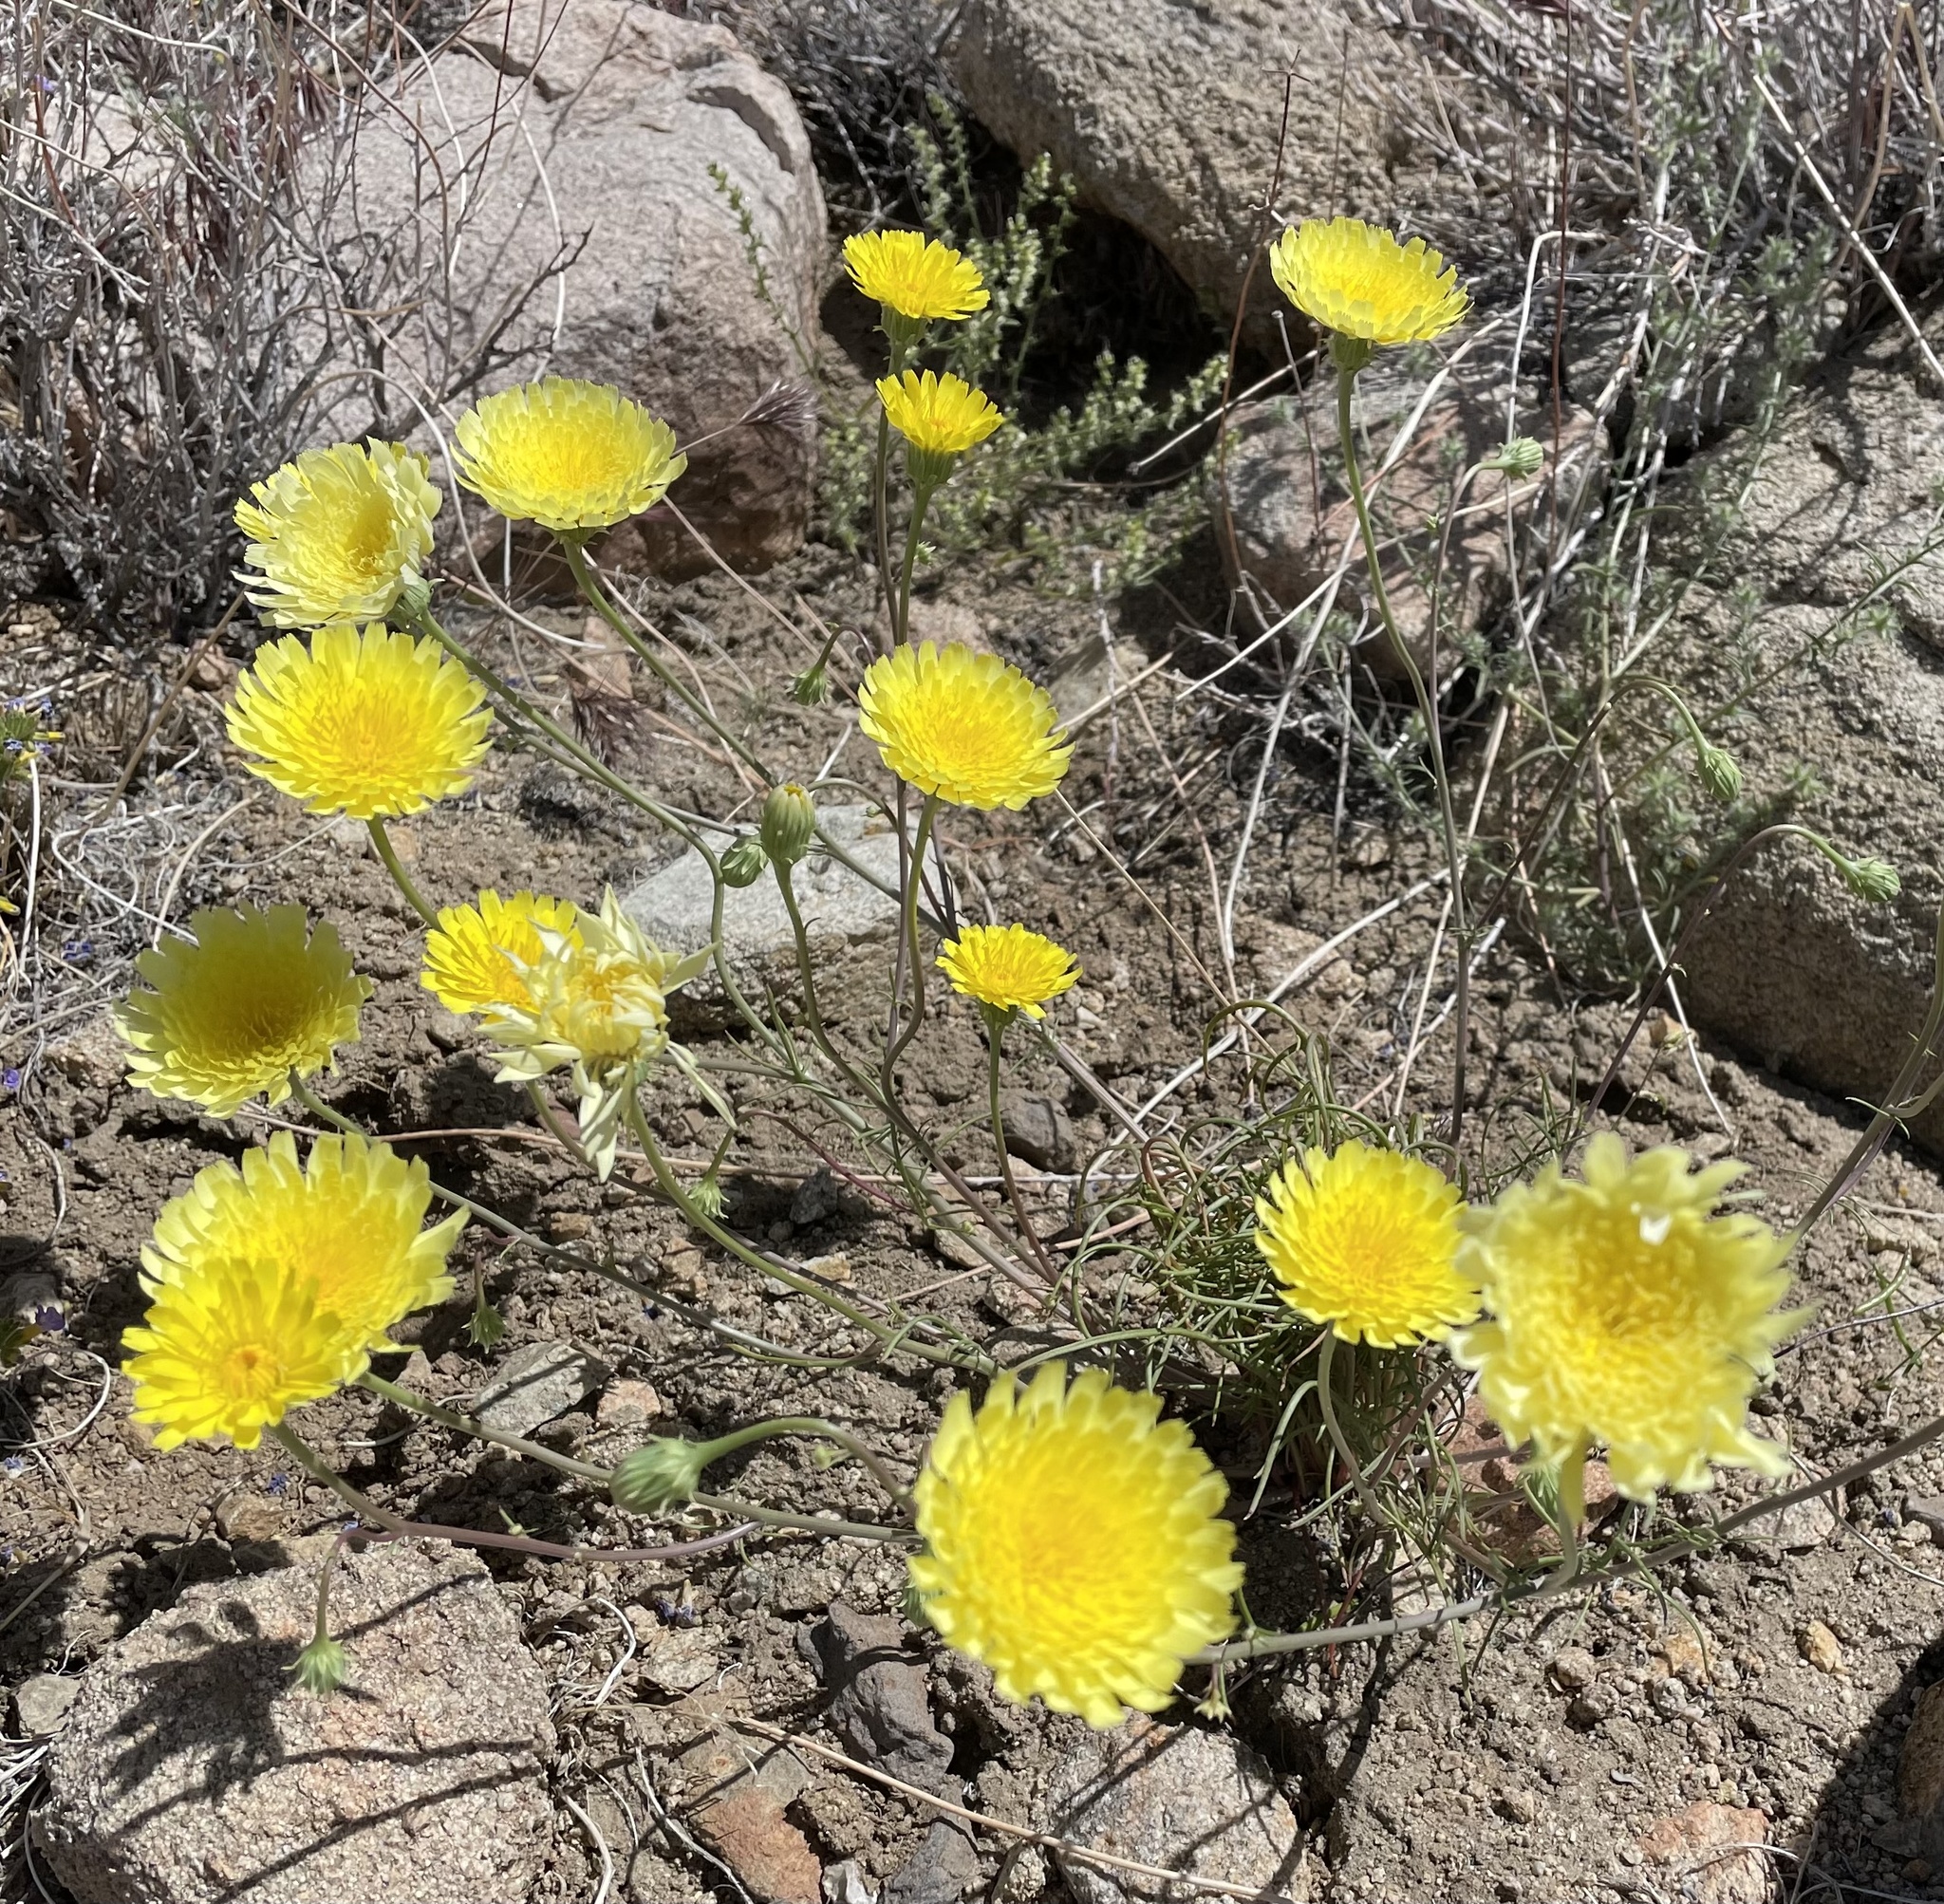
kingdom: Plantae
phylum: Tracheophyta
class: Magnoliopsida
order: Asterales
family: Asteraceae
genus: Malacothrix
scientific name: Malacothrix glabrata
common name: Smooth desert-dandelion
